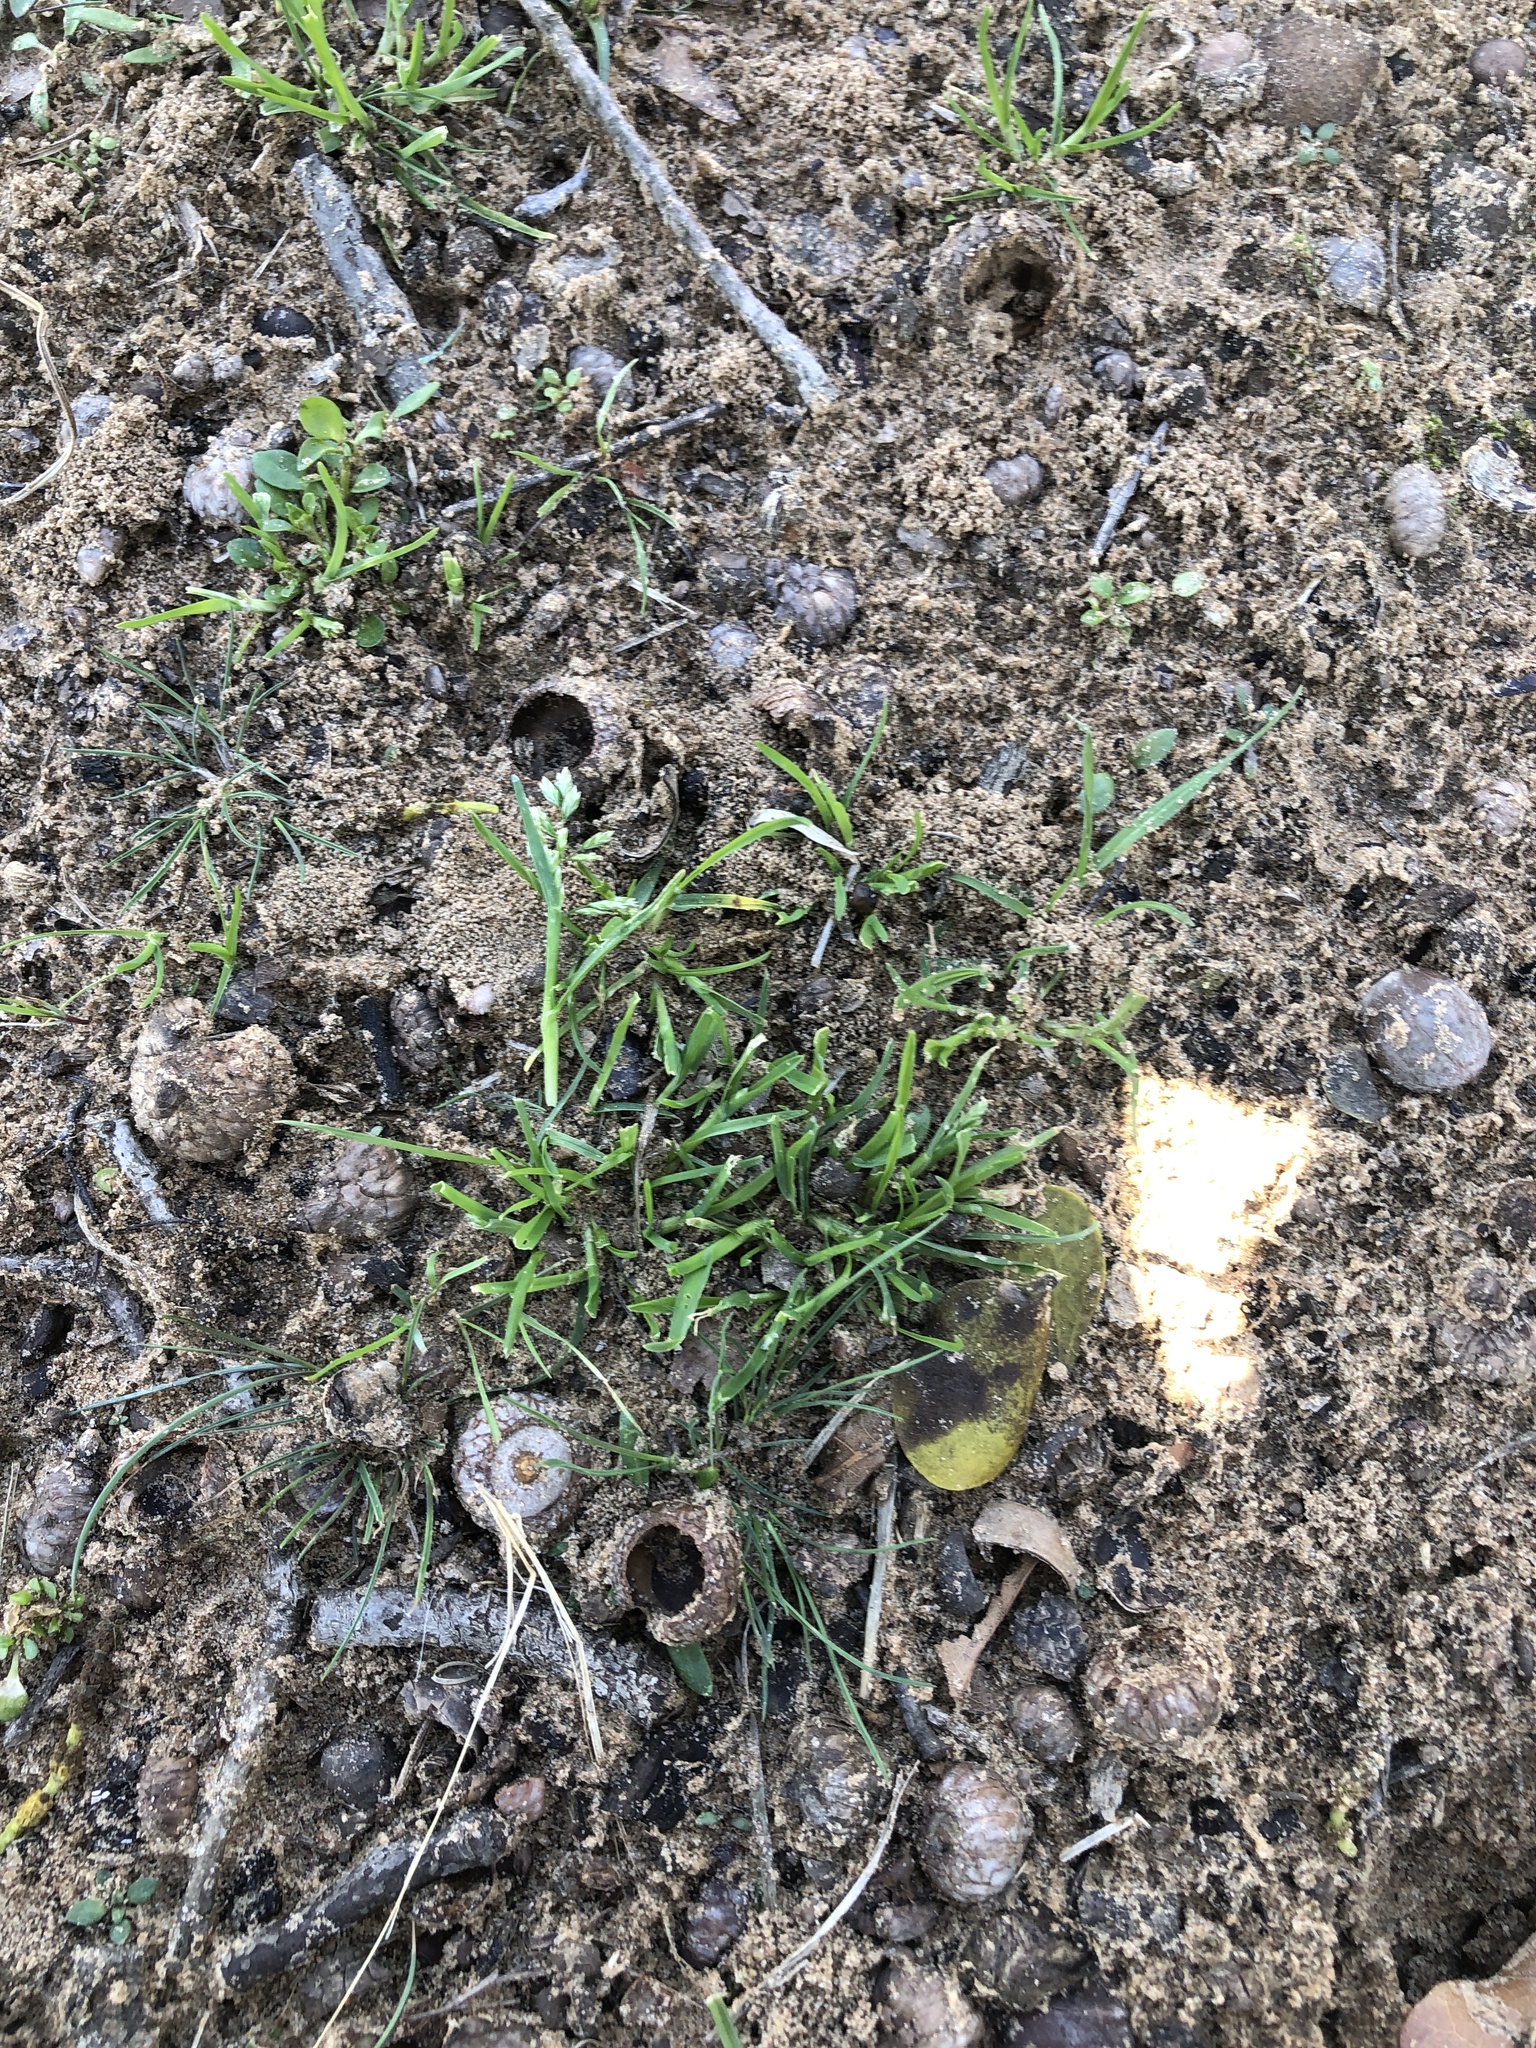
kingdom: Plantae
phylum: Tracheophyta
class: Liliopsida
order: Poales
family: Poaceae
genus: Poa
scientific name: Poa annua
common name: Annual bluegrass
